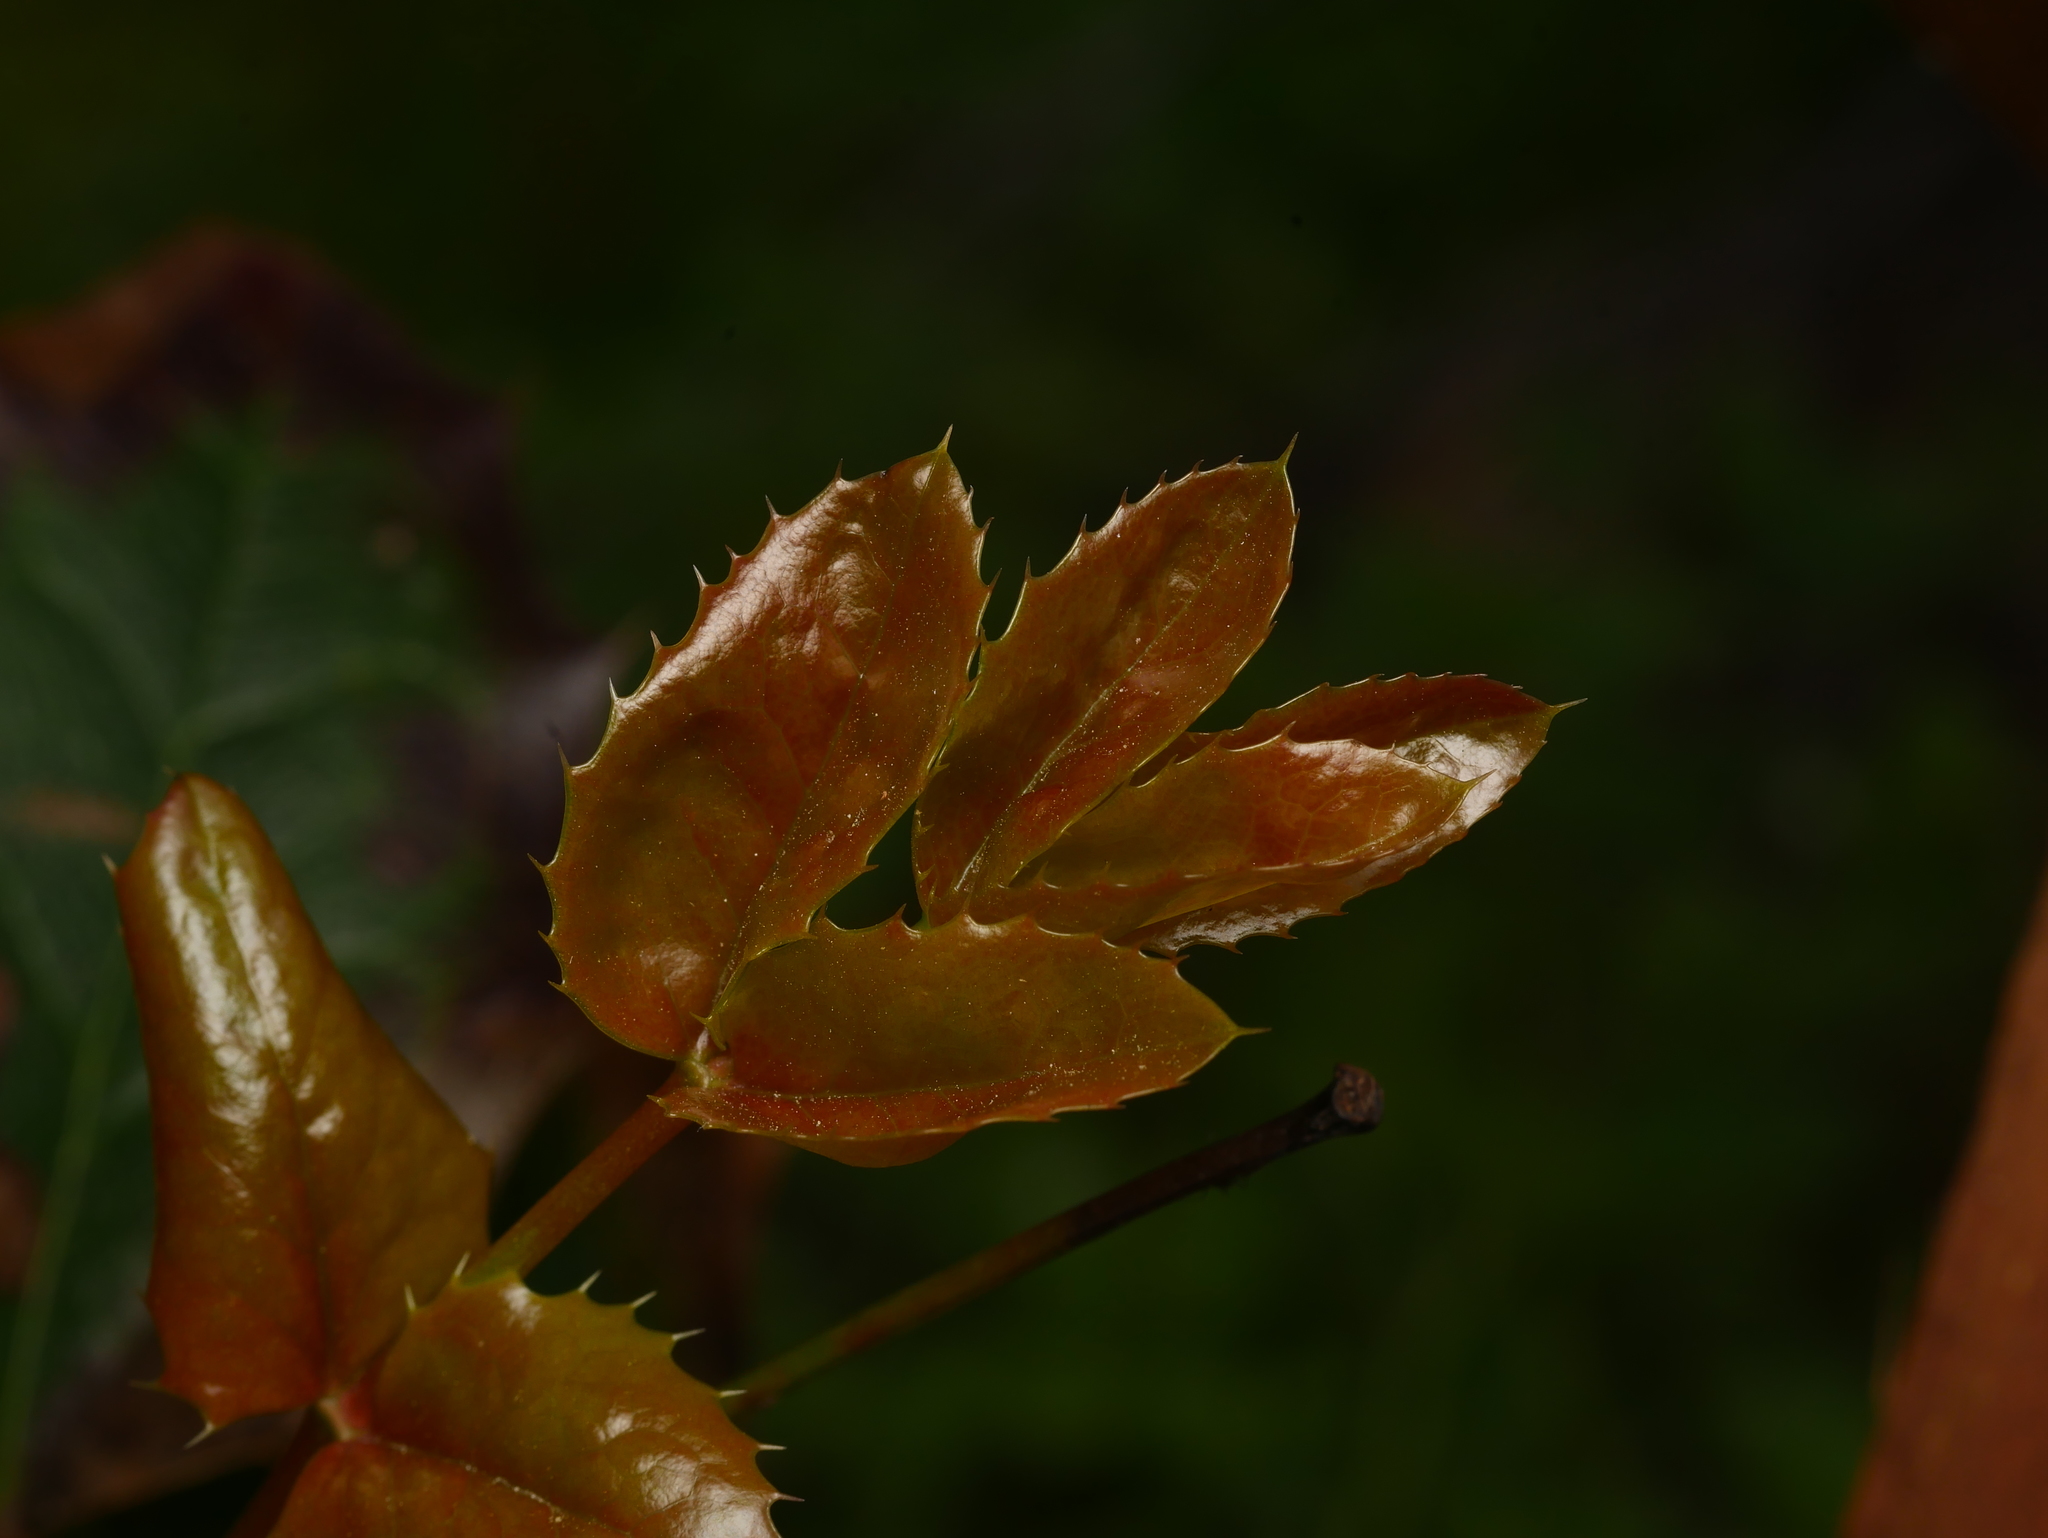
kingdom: Plantae
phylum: Tracheophyta
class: Magnoliopsida
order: Ranunculales
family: Berberidaceae
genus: Mahonia
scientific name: Mahonia aquifolium
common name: Oregon-grape
